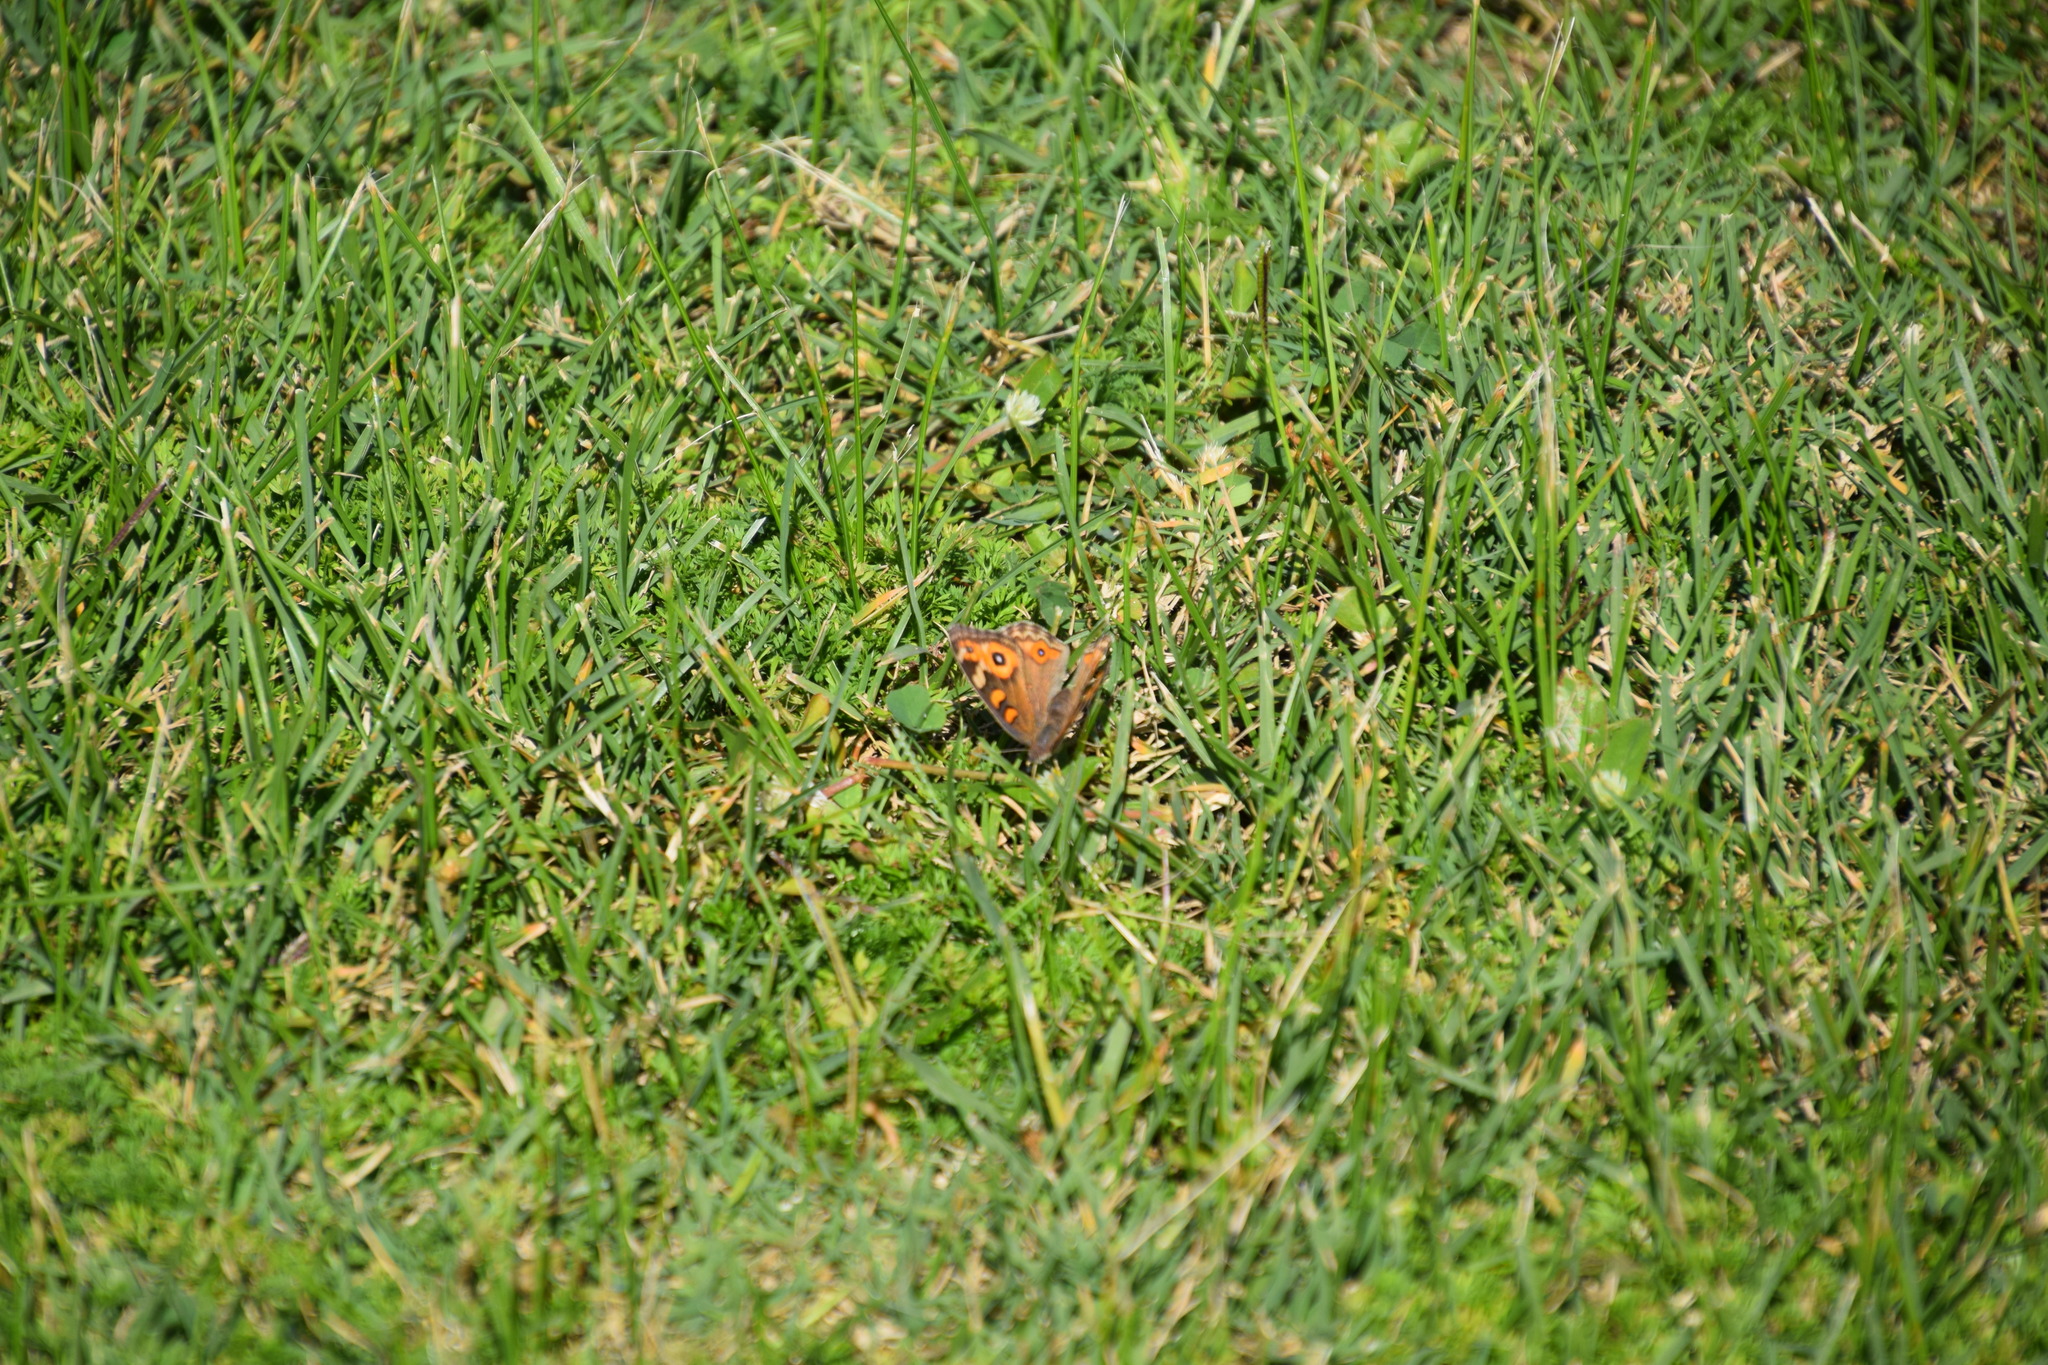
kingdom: Animalia
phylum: Arthropoda
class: Insecta
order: Lepidoptera
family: Nymphalidae
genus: Junonia
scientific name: Junonia villida
